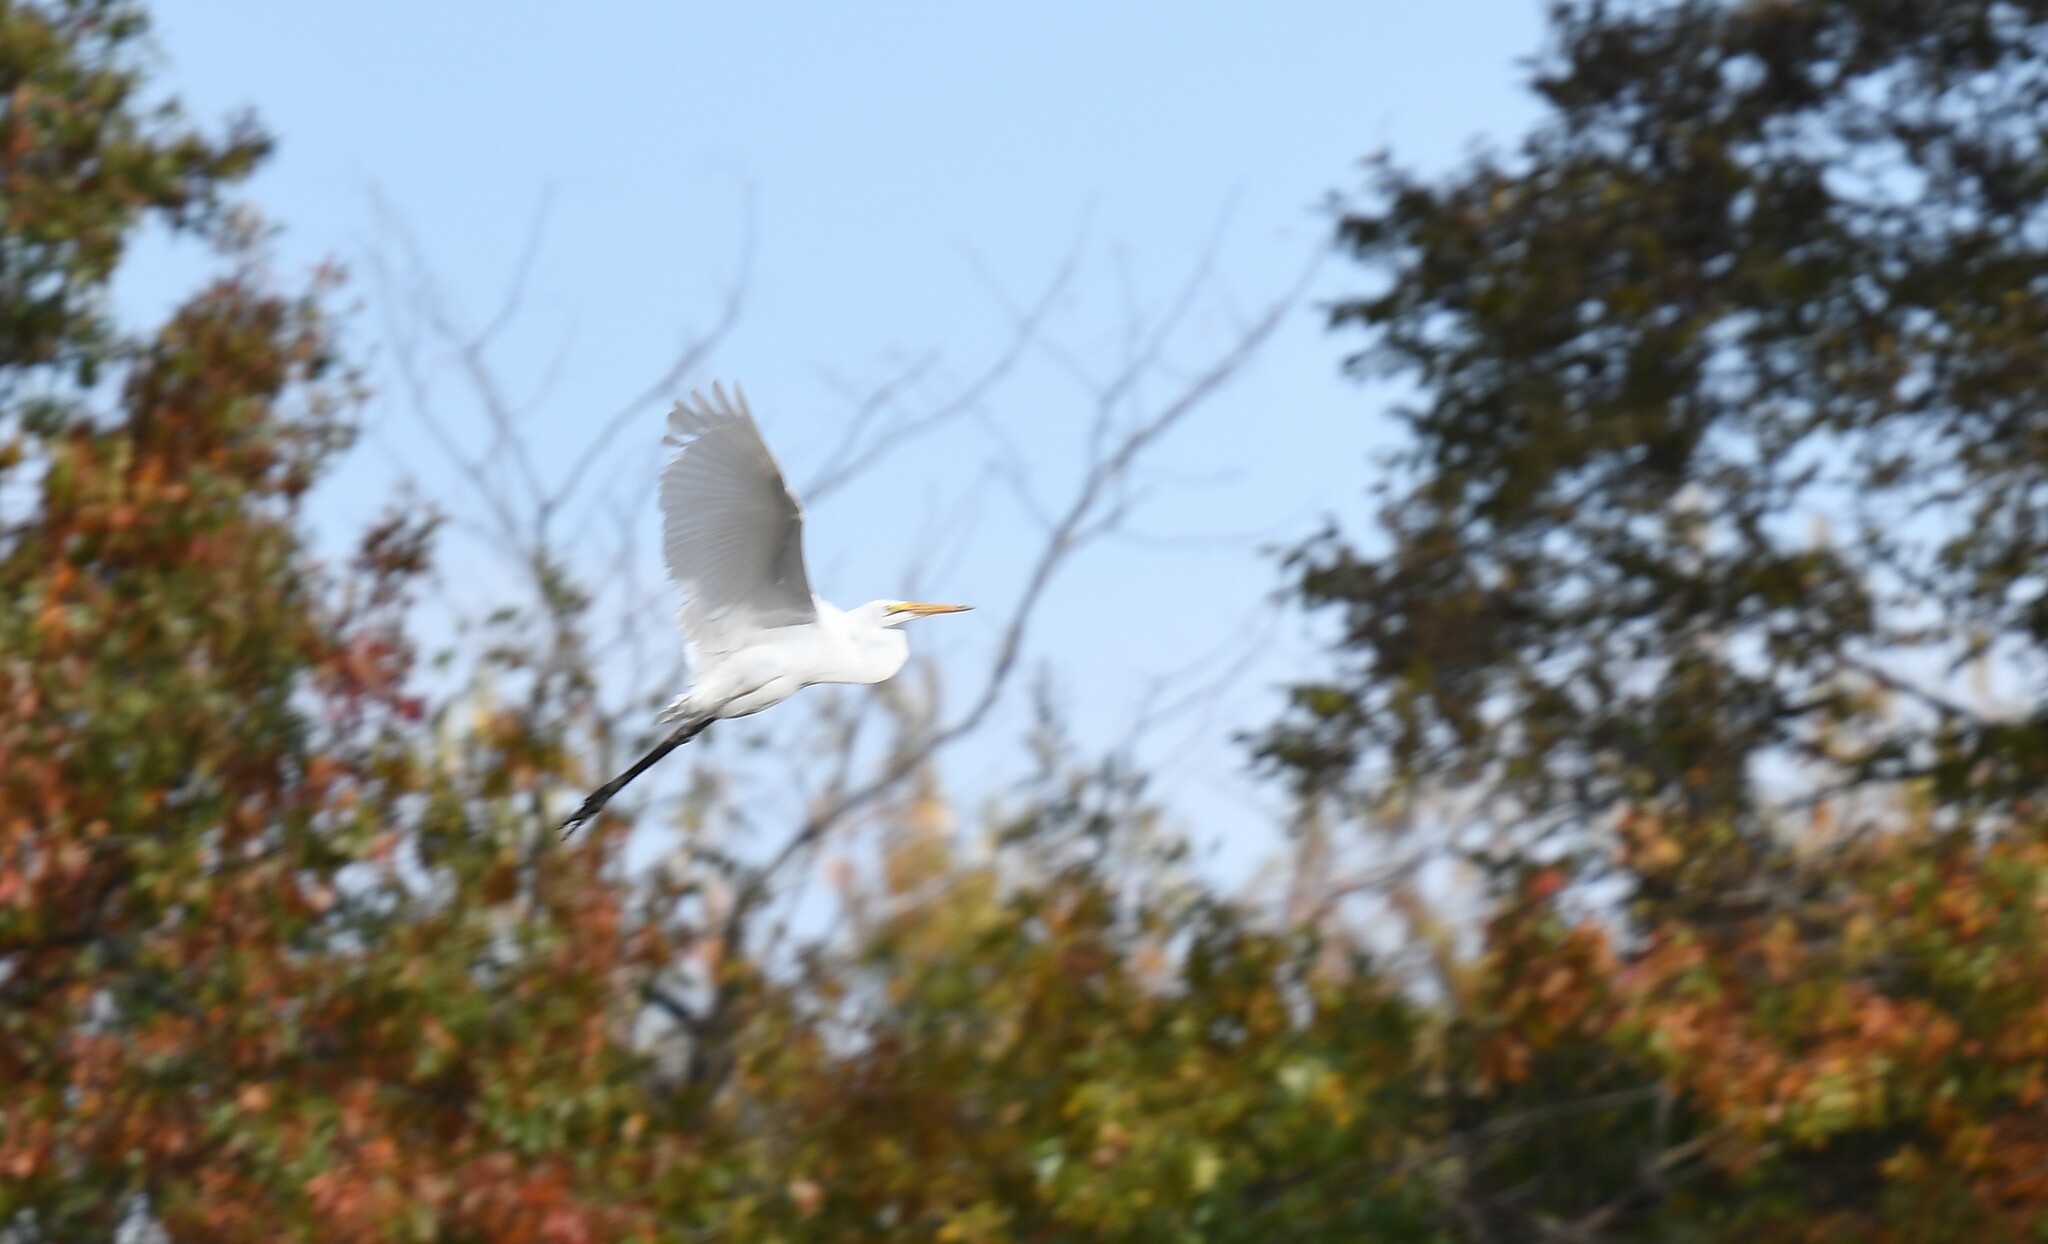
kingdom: Animalia
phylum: Chordata
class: Aves
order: Pelecaniformes
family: Ardeidae
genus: Ardea
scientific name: Ardea alba
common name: Great egret
